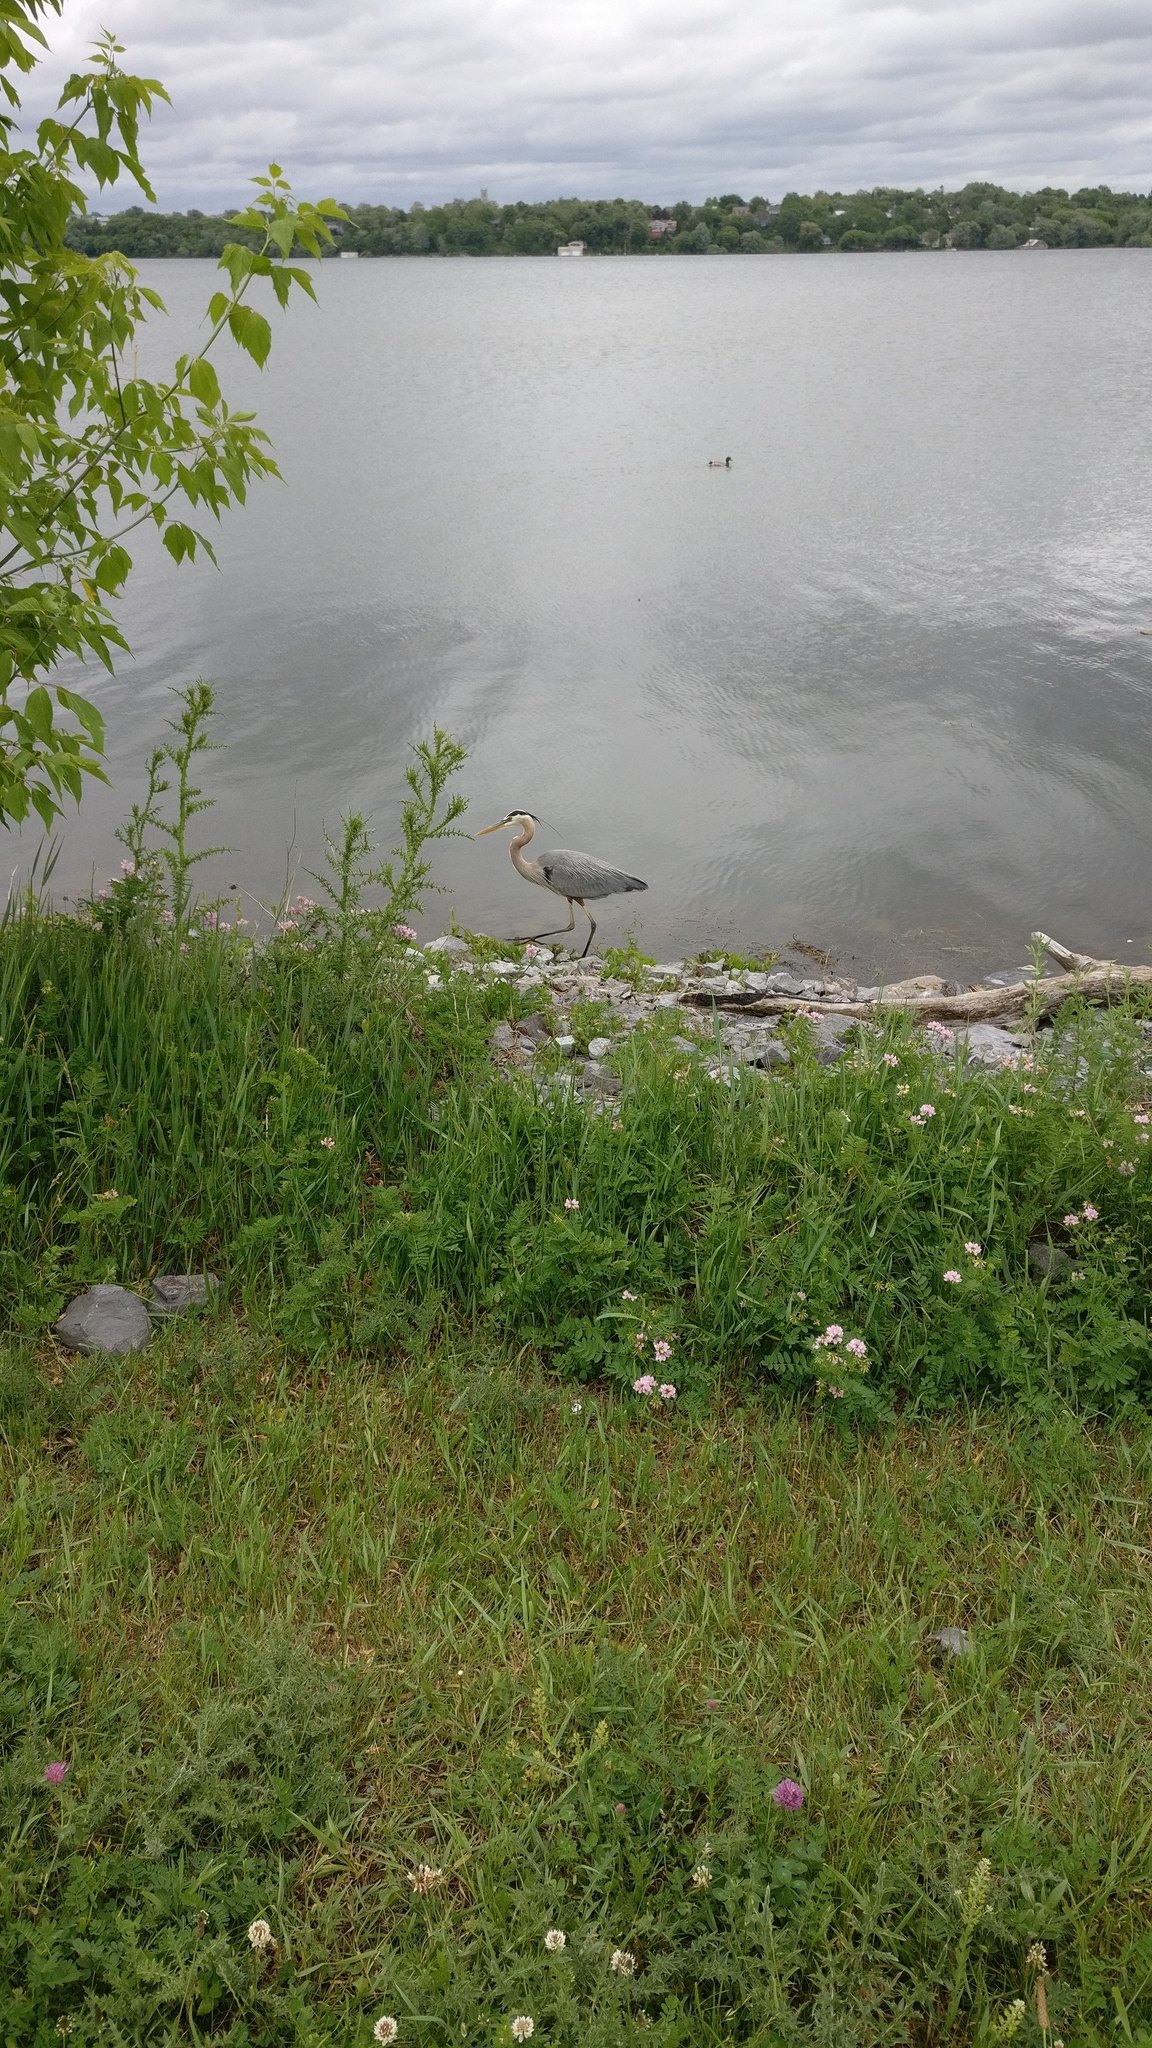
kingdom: Animalia
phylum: Chordata
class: Aves
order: Pelecaniformes
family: Ardeidae
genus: Ardea
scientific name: Ardea herodias
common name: Great blue heron
